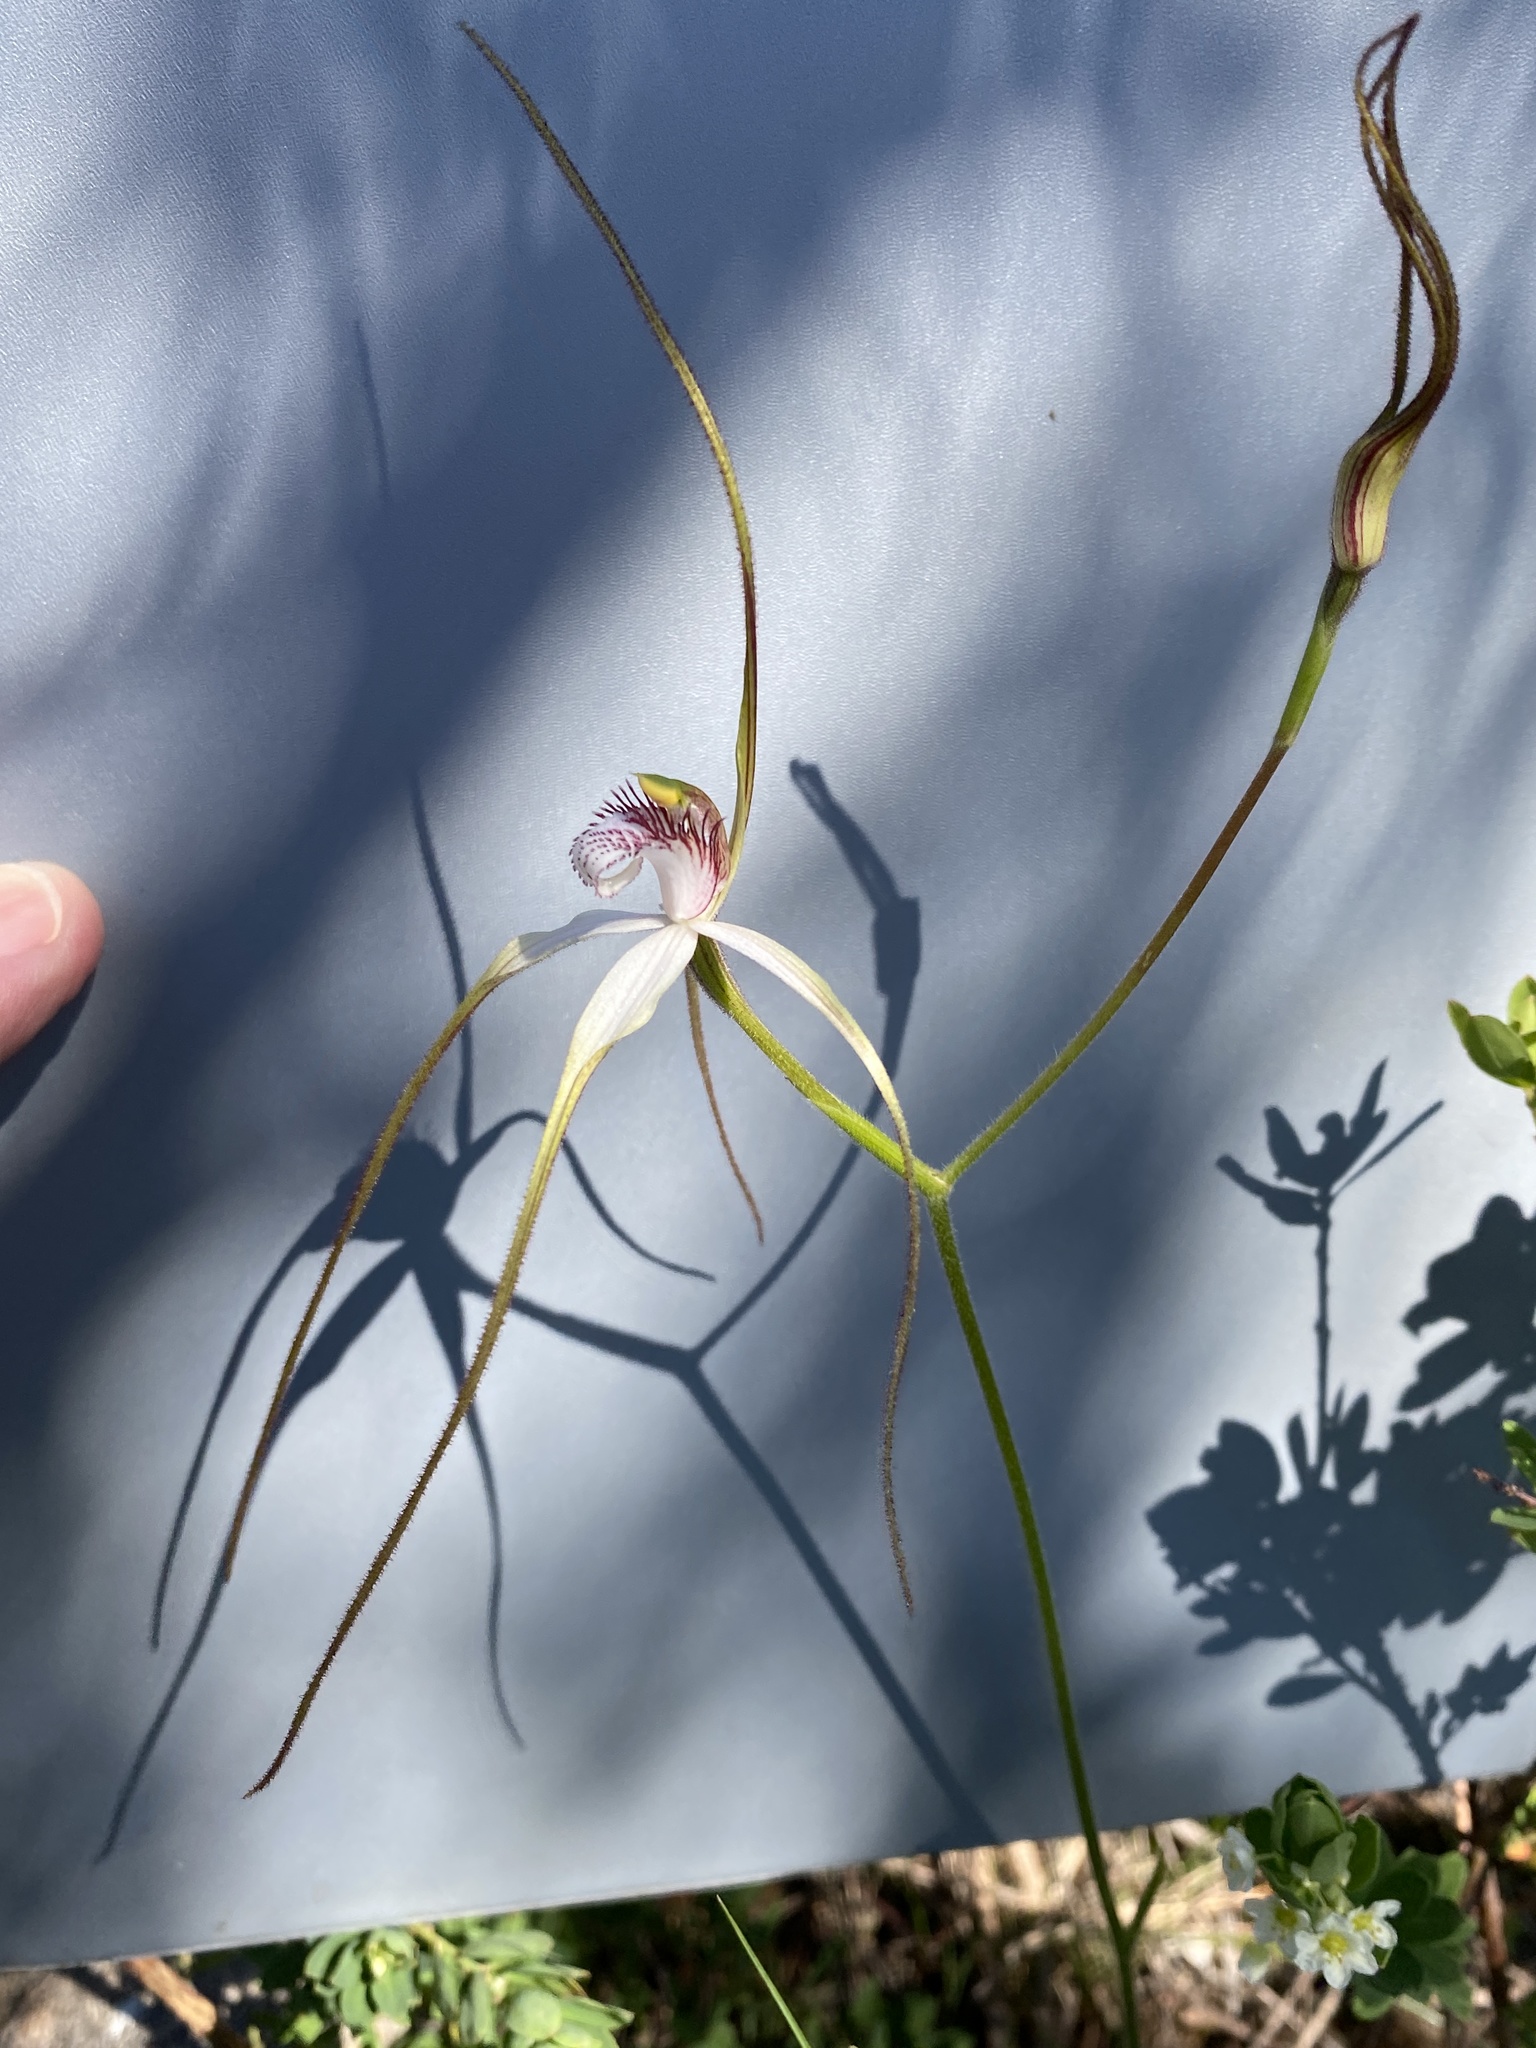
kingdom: Plantae
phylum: Tracheophyta
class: Liliopsida
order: Asparagales
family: Orchidaceae
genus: Caladenia
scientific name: Caladenia longicauda
